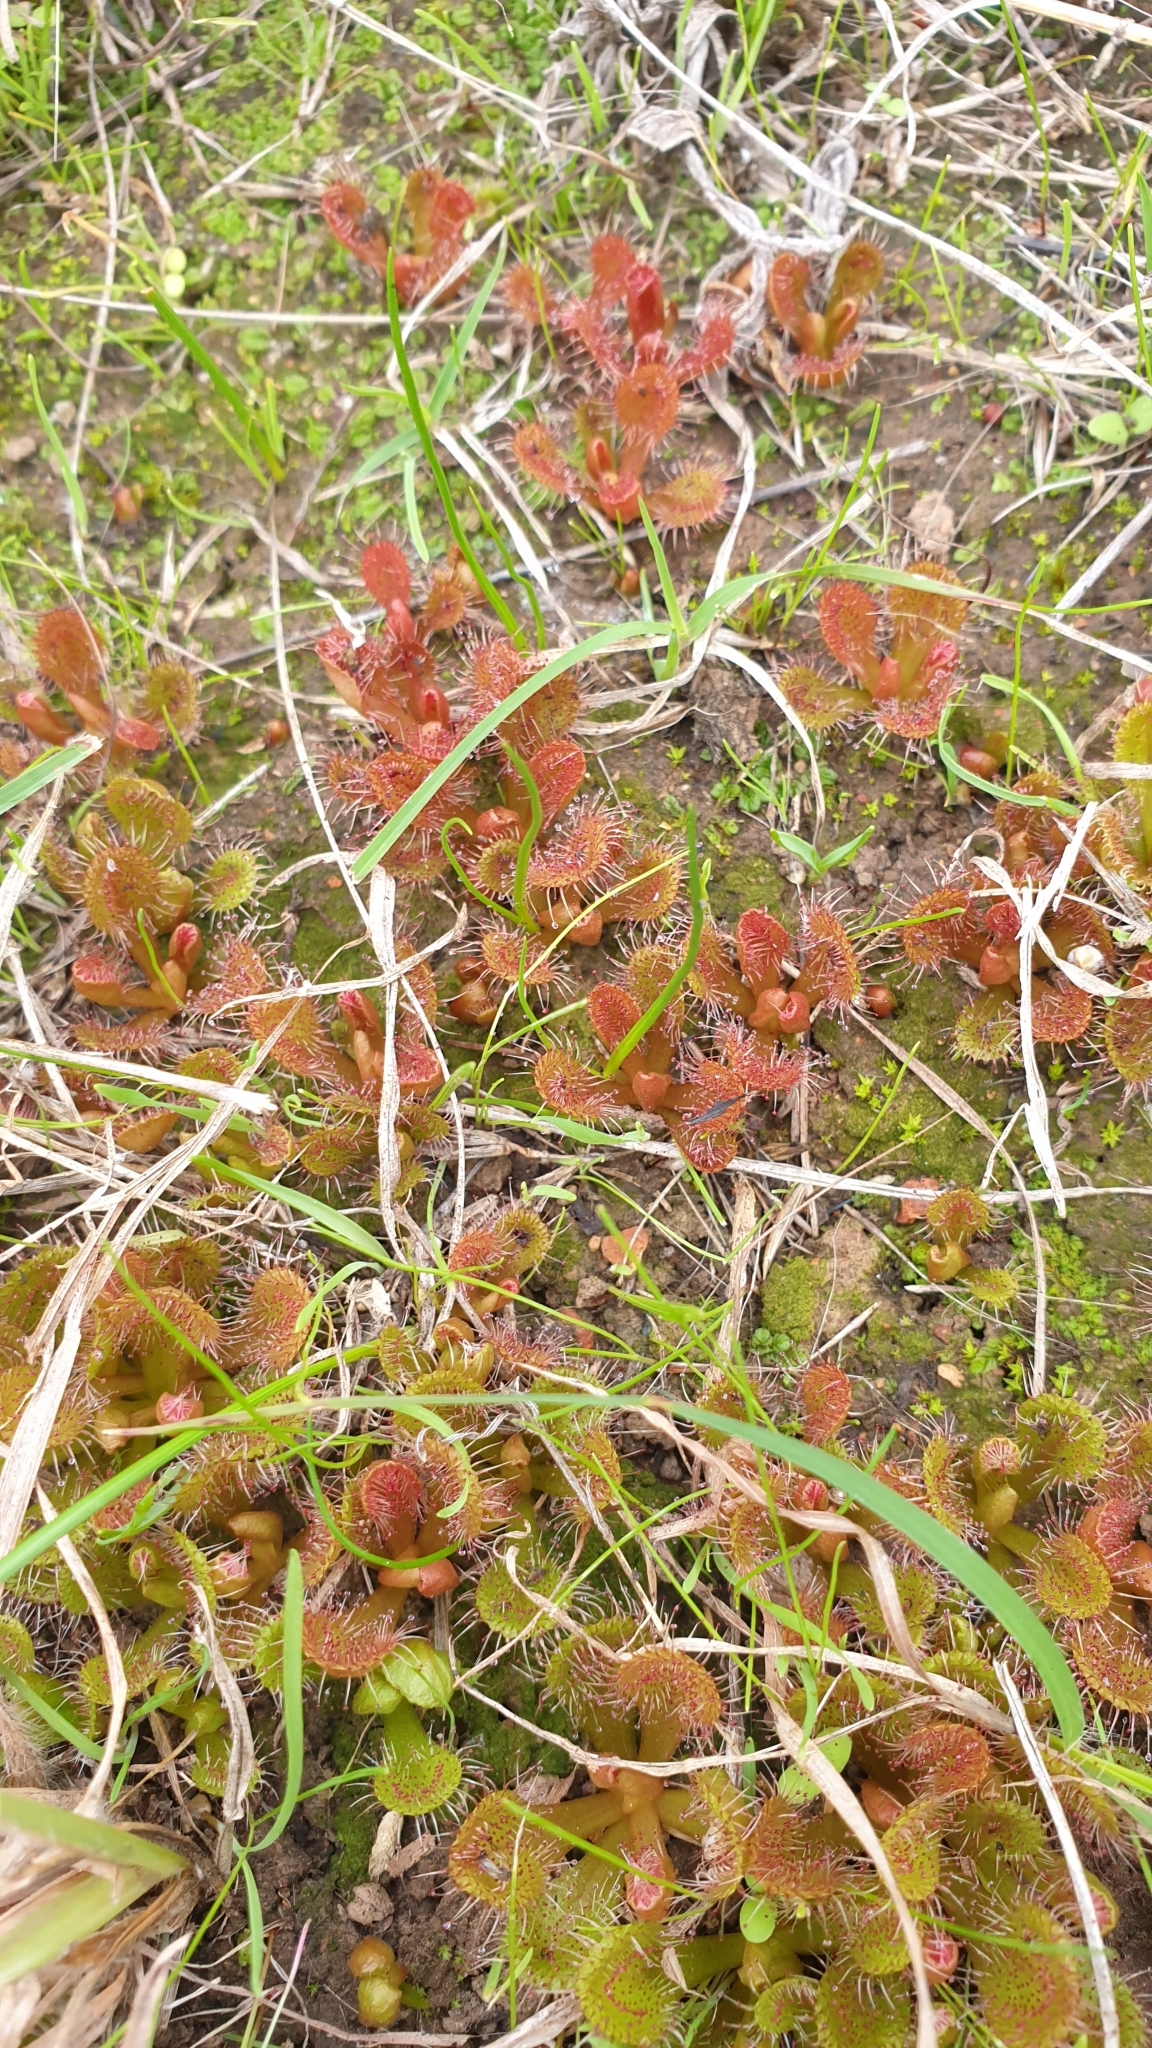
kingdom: Plantae
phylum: Tracheophyta
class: Magnoliopsida
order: Caryophyllales
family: Droseraceae
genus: Drosera
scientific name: Drosera aberrans
